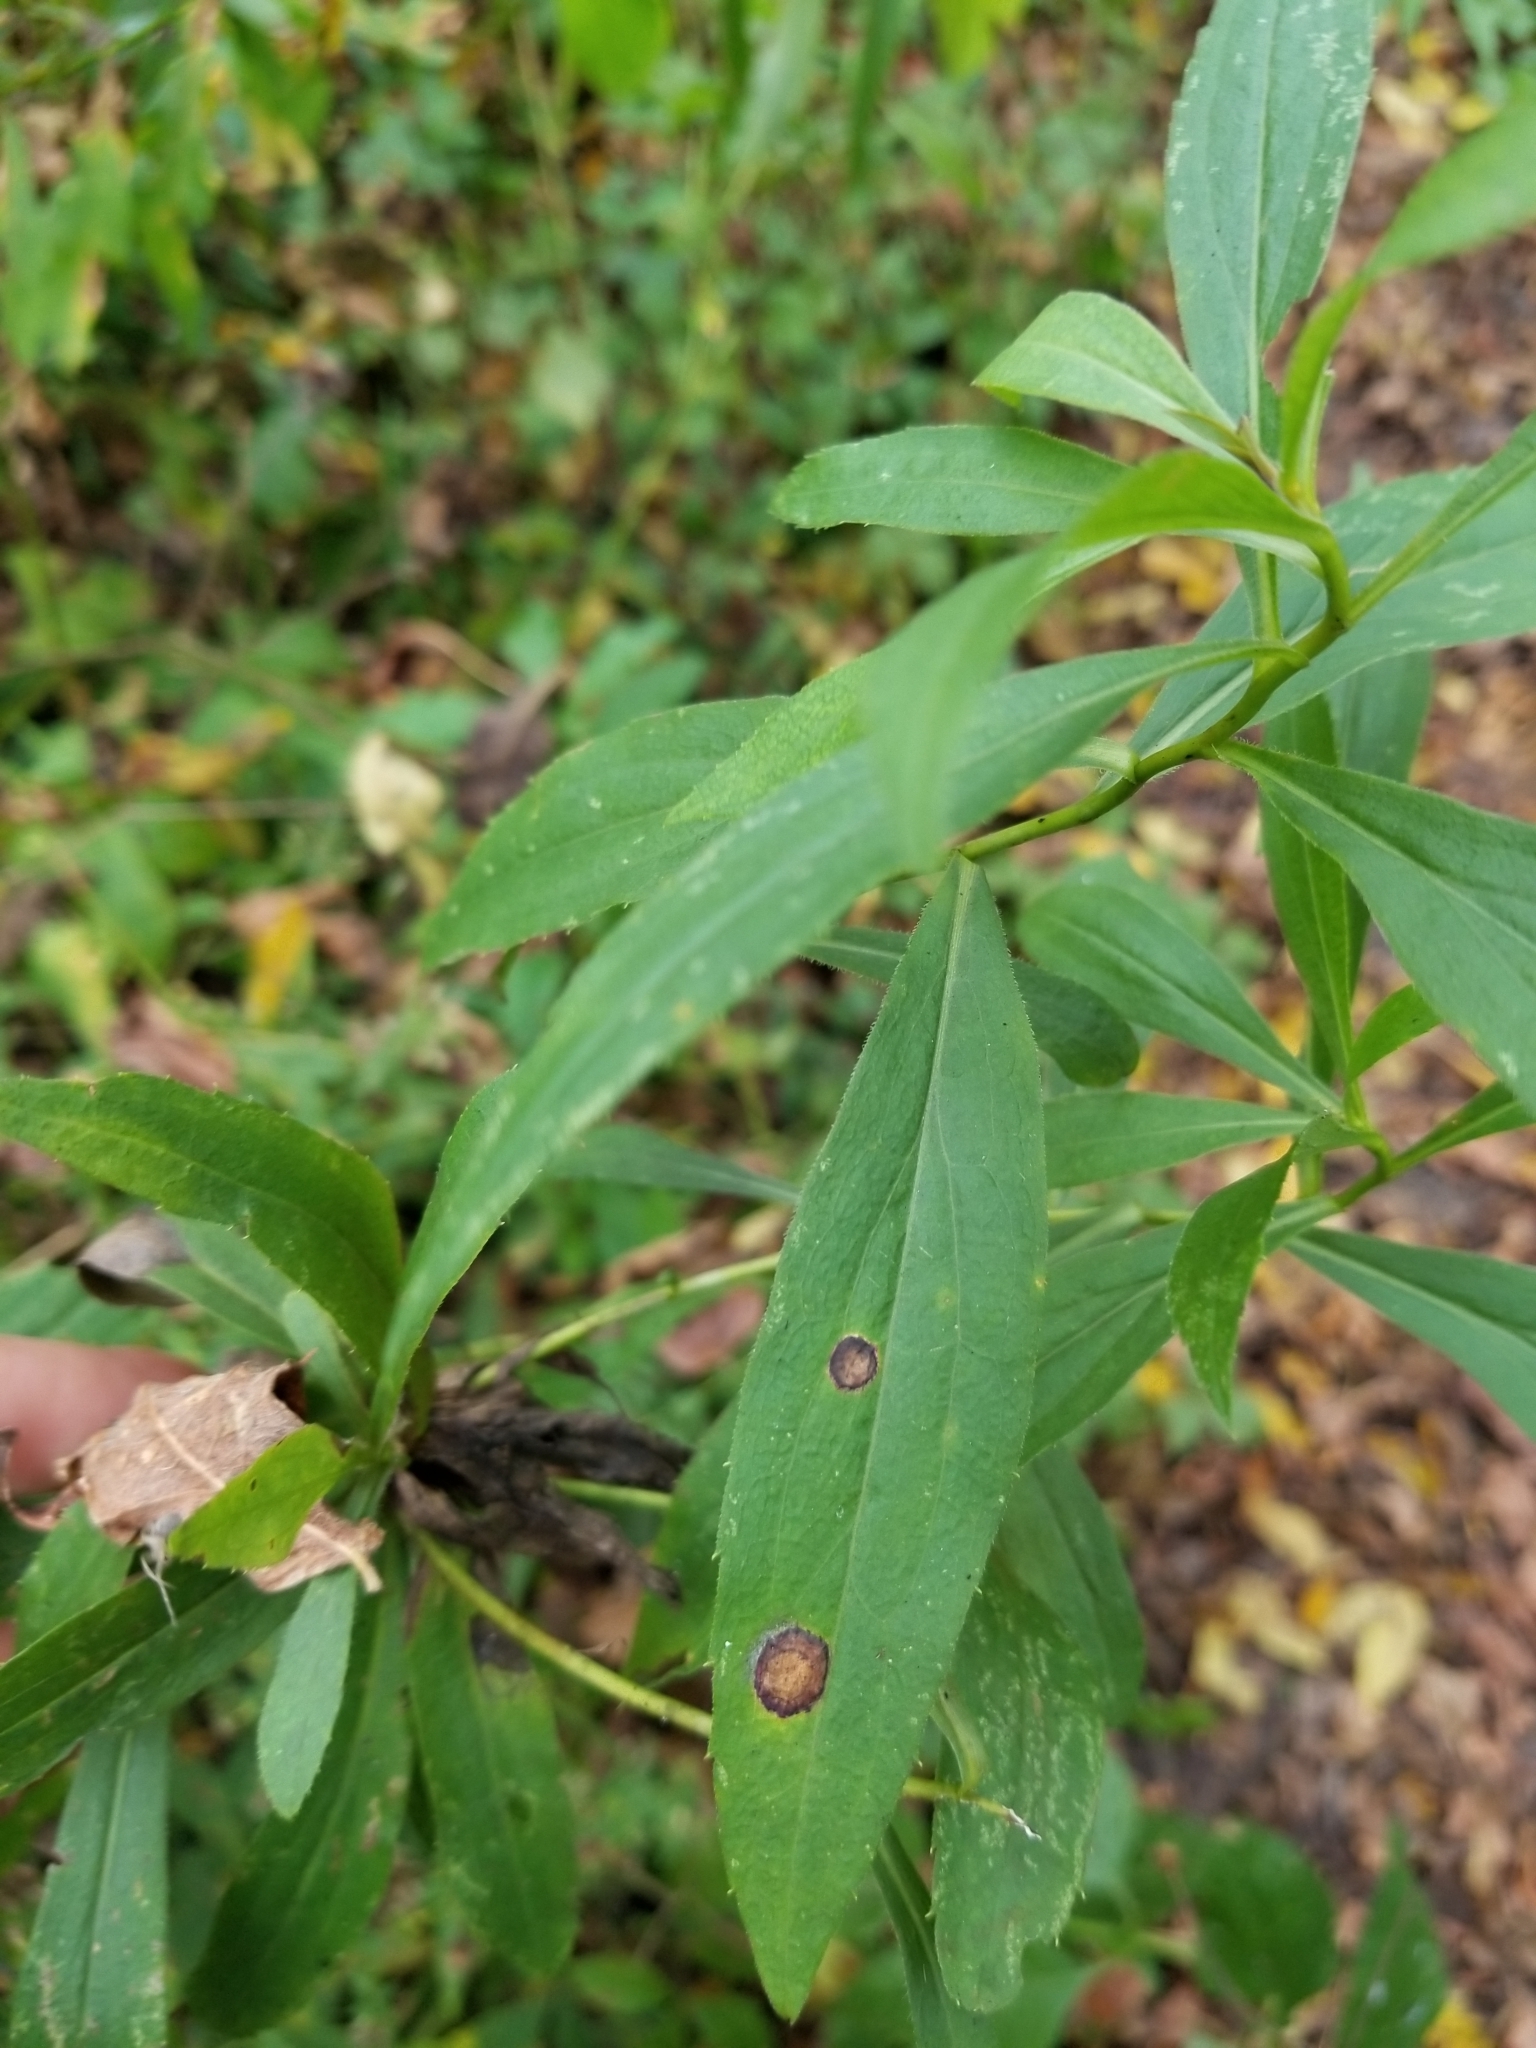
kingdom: Animalia
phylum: Arthropoda
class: Insecta
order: Diptera
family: Cecidomyiidae
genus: Asteromyia
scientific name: Asteromyia carbonifera
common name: Carbonifera goldenrod gall midge
